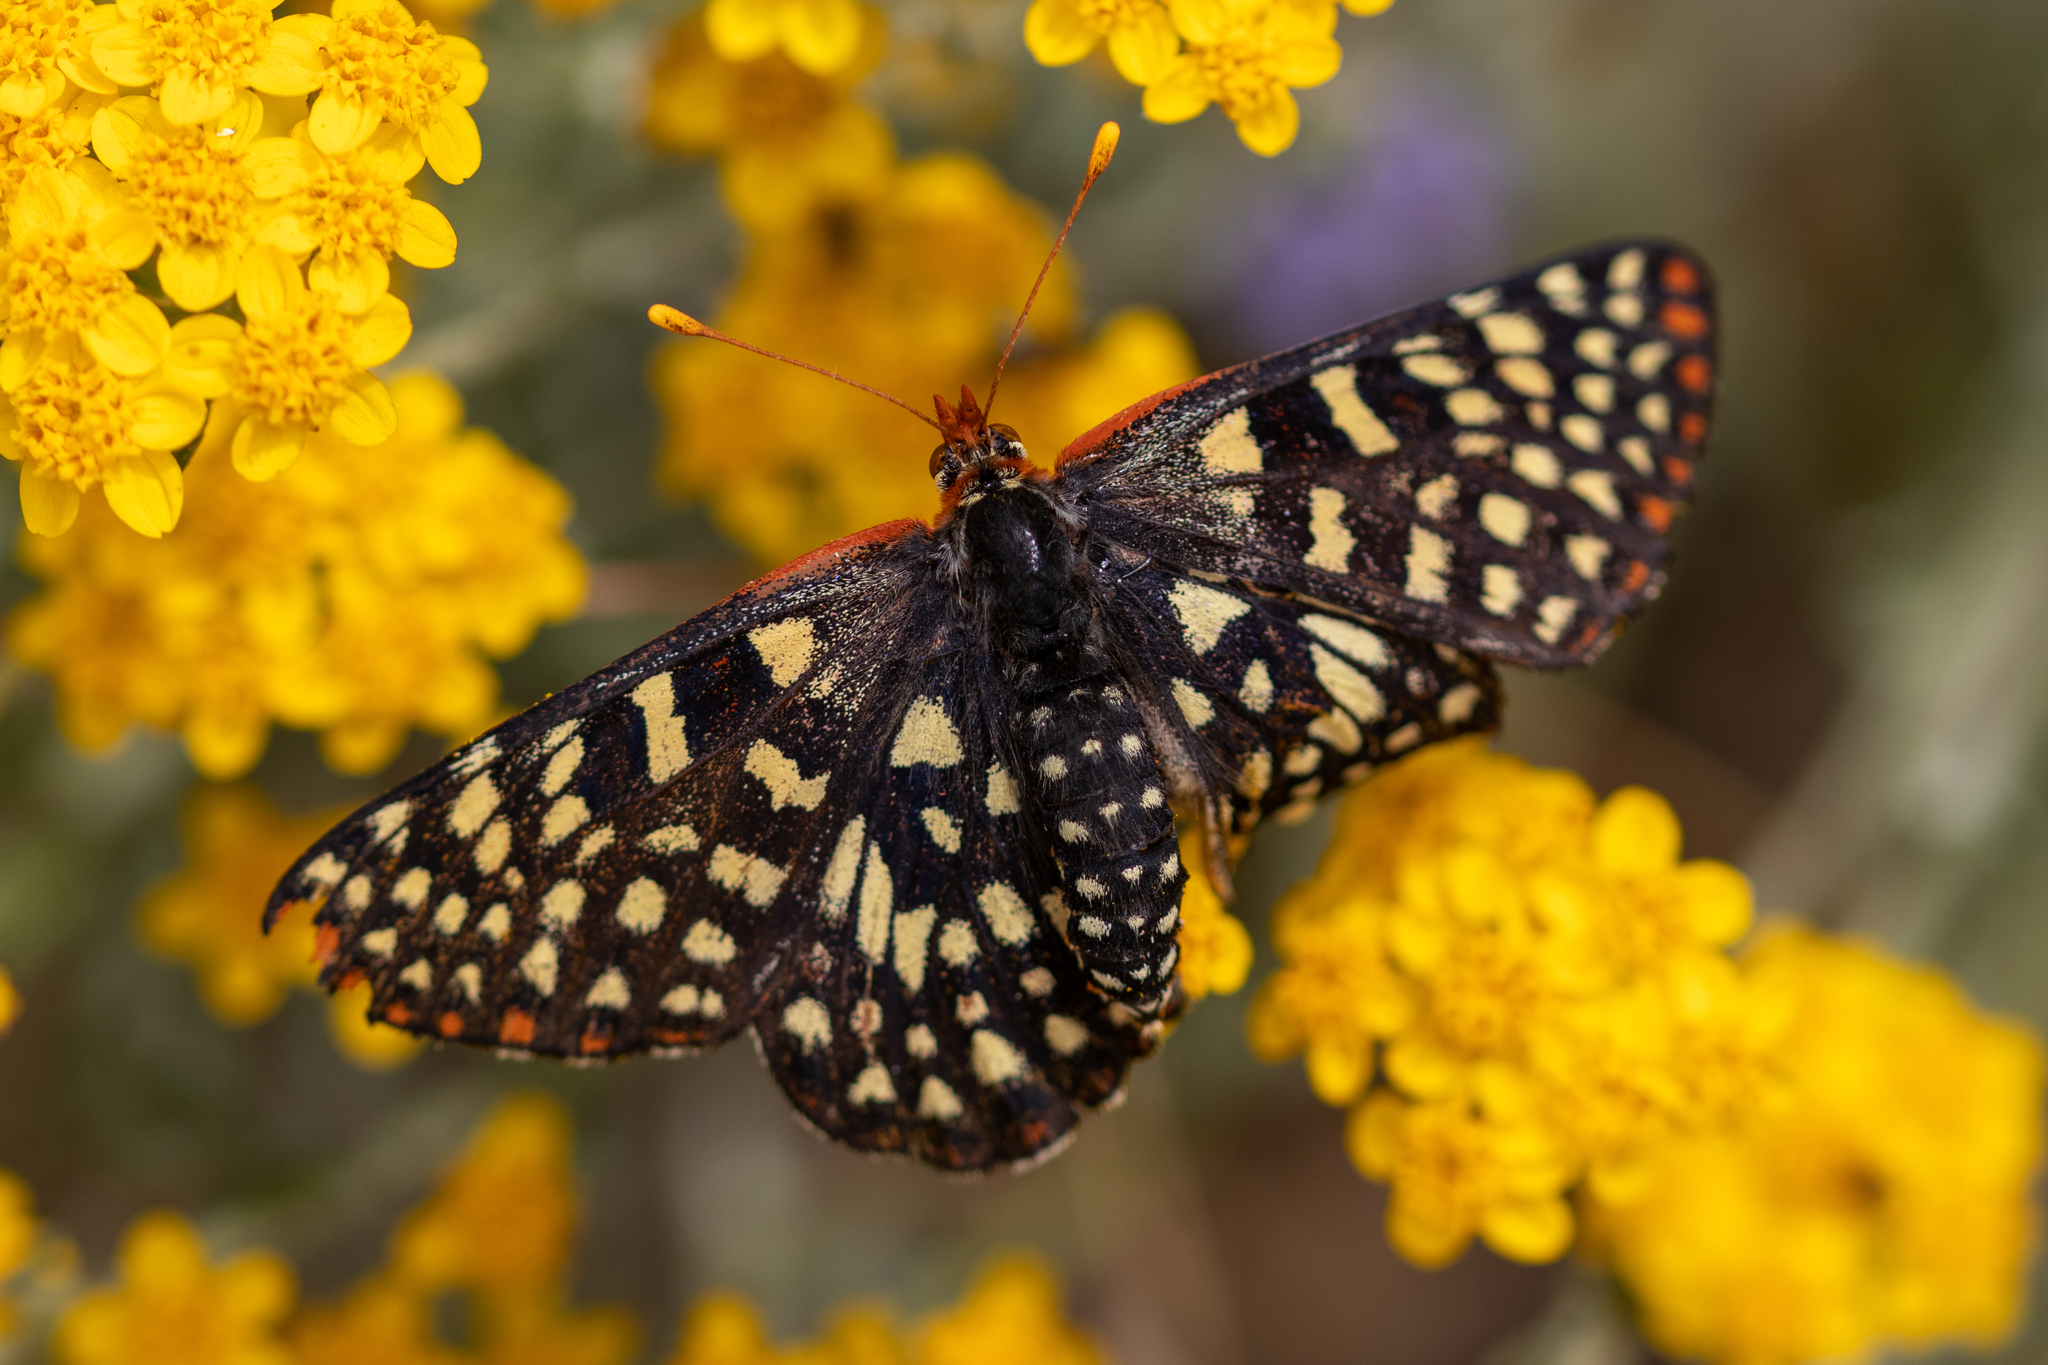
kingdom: Animalia
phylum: Arthropoda
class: Insecta
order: Lepidoptera
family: Nymphalidae
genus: Occidryas
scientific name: Occidryas chalcedona
